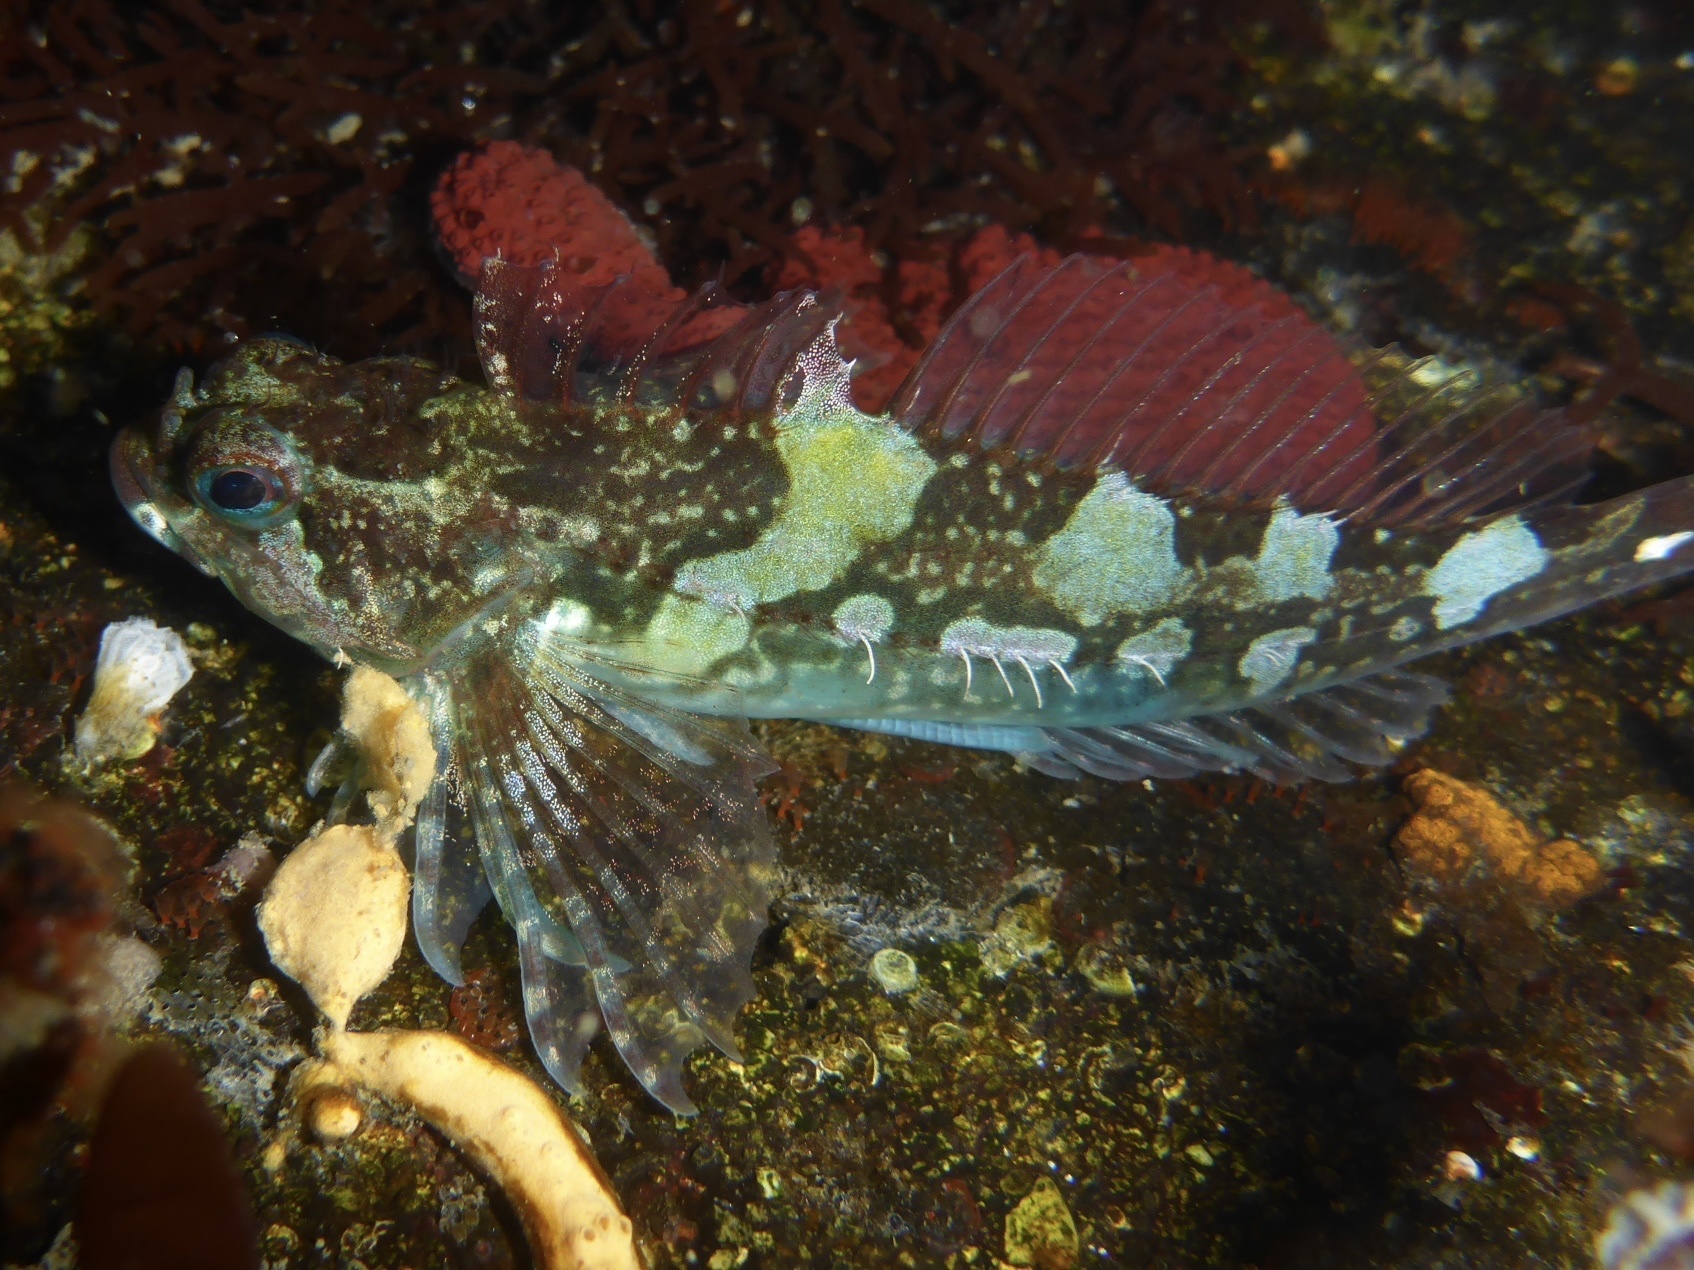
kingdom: Animalia
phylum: Chordata
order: Scorpaeniformes
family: Cottidae
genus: Oligocottus
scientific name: Oligocottus snyderi
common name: Fluffy sculpin
